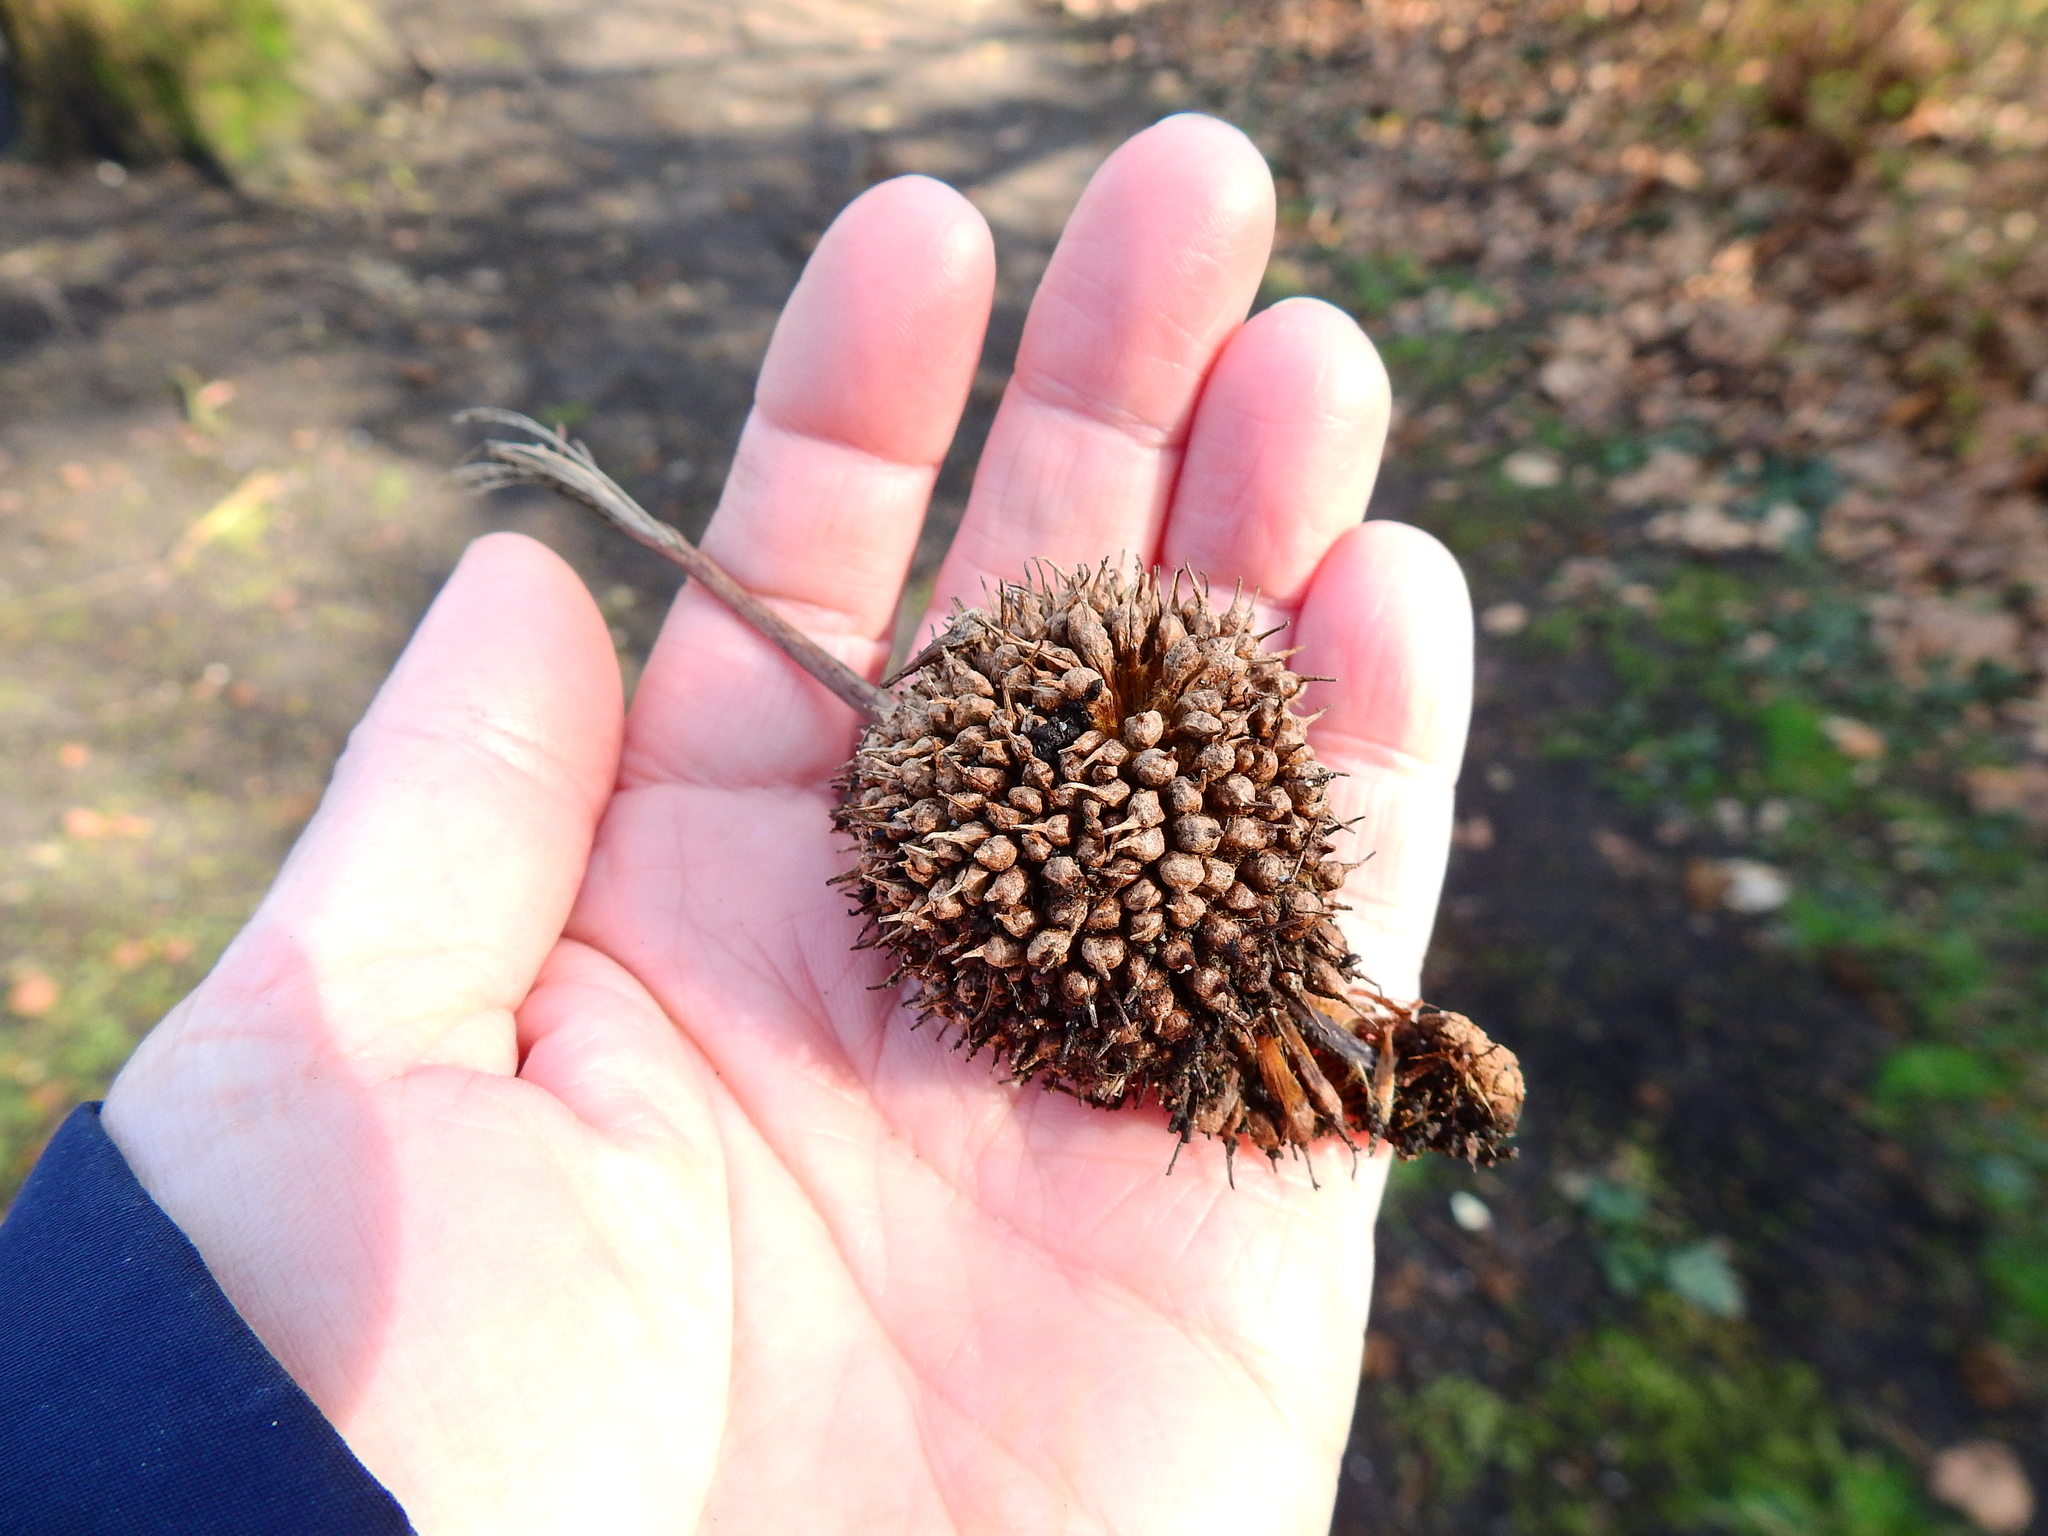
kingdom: Plantae
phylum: Tracheophyta
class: Magnoliopsida
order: Proteales
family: Platanaceae
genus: Platanus
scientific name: Platanus hispanica
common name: London plane
